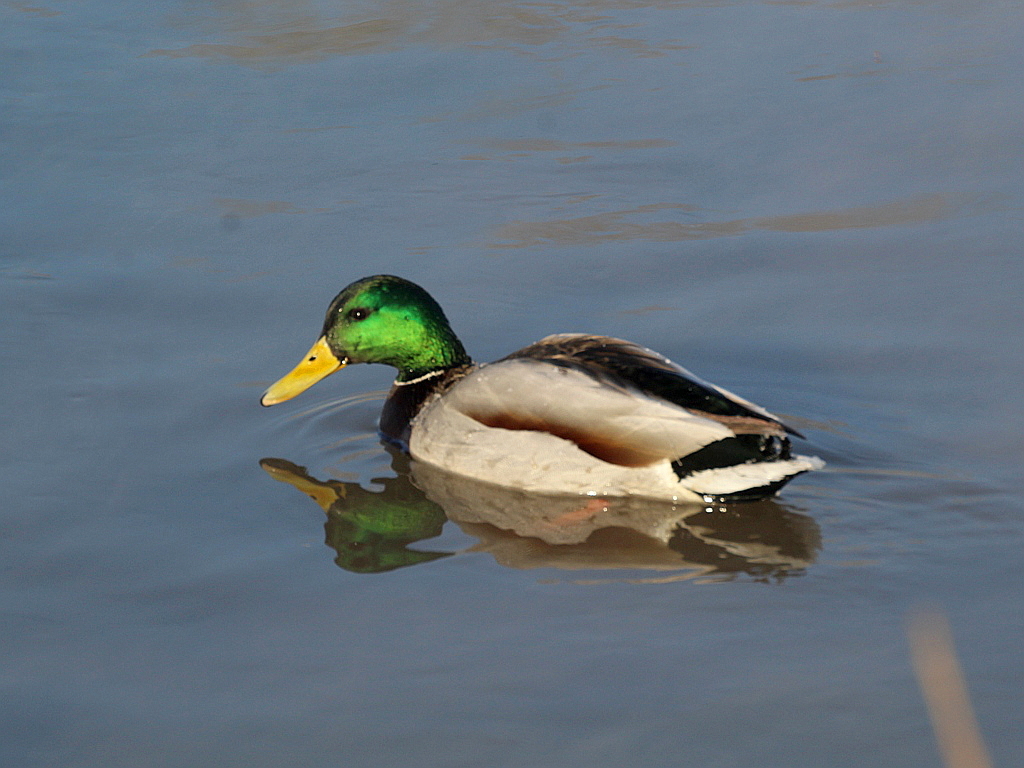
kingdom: Animalia
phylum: Chordata
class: Aves
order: Anseriformes
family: Anatidae
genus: Anas
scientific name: Anas platyrhynchos
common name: Mallard
